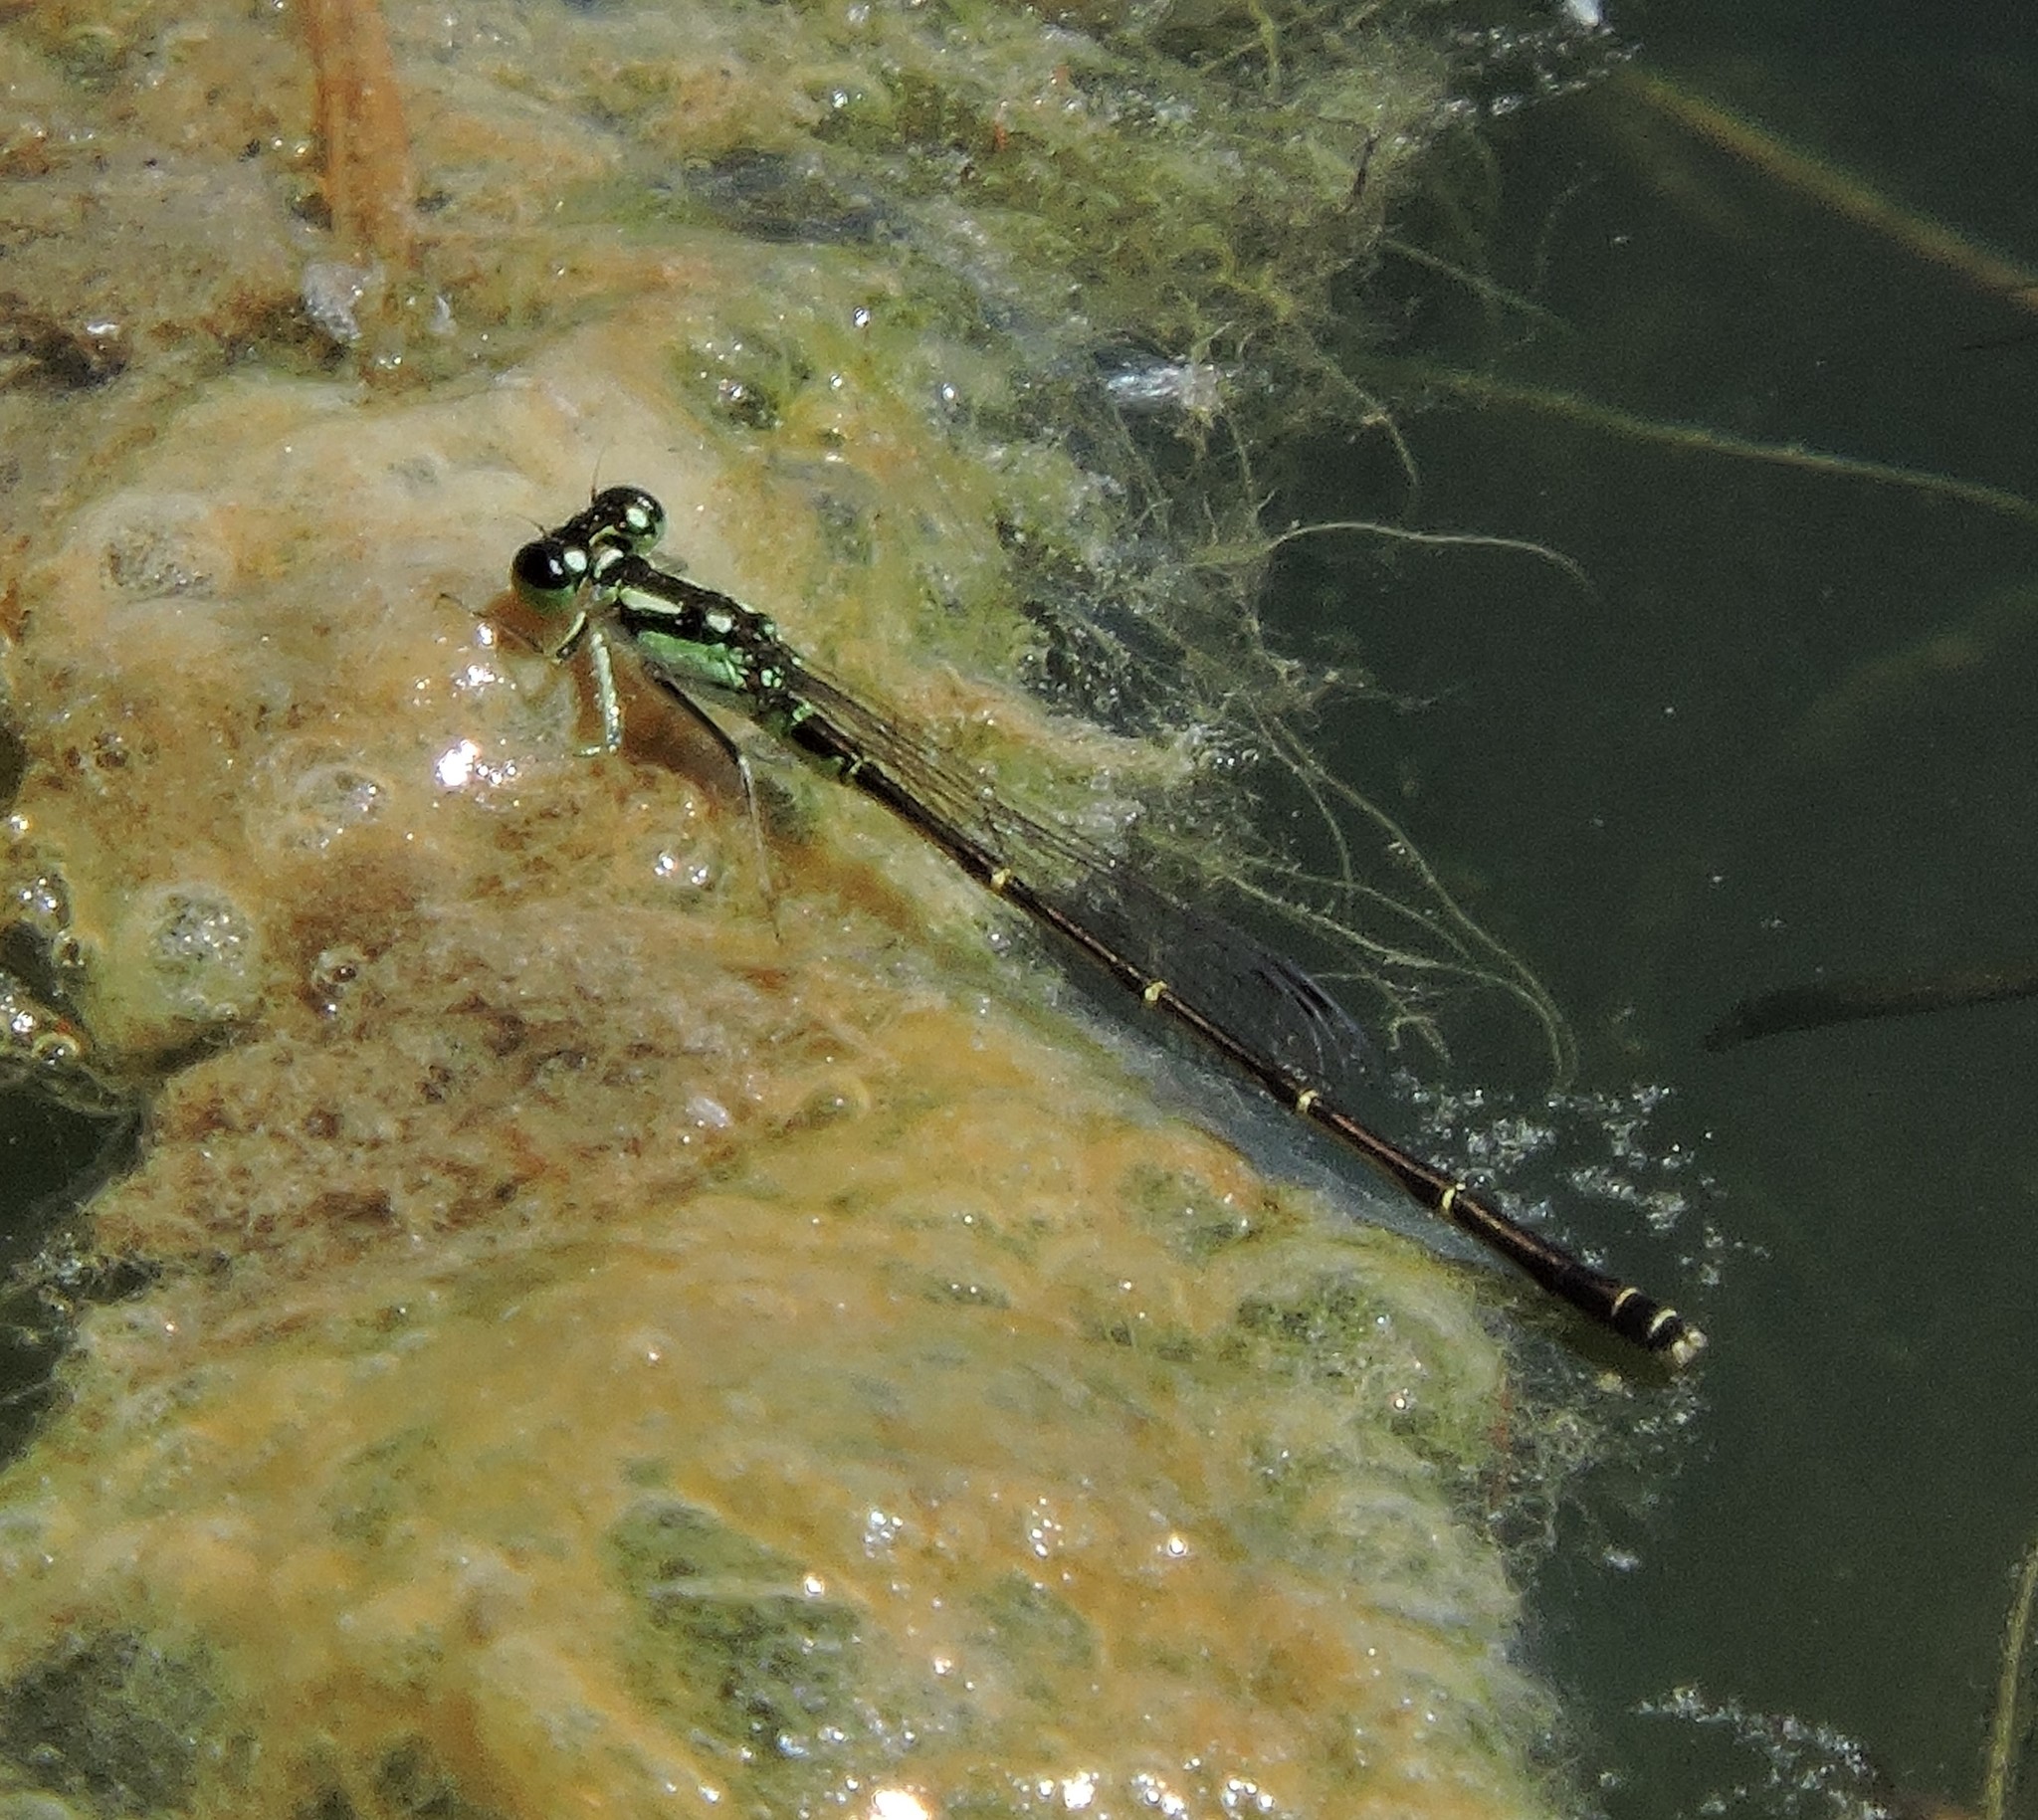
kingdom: Animalia
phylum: Arthropoda
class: Insecta
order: Odonata
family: Coenagrionidae
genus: Ischnura
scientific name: Ischnura posita
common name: Fragile forktail
